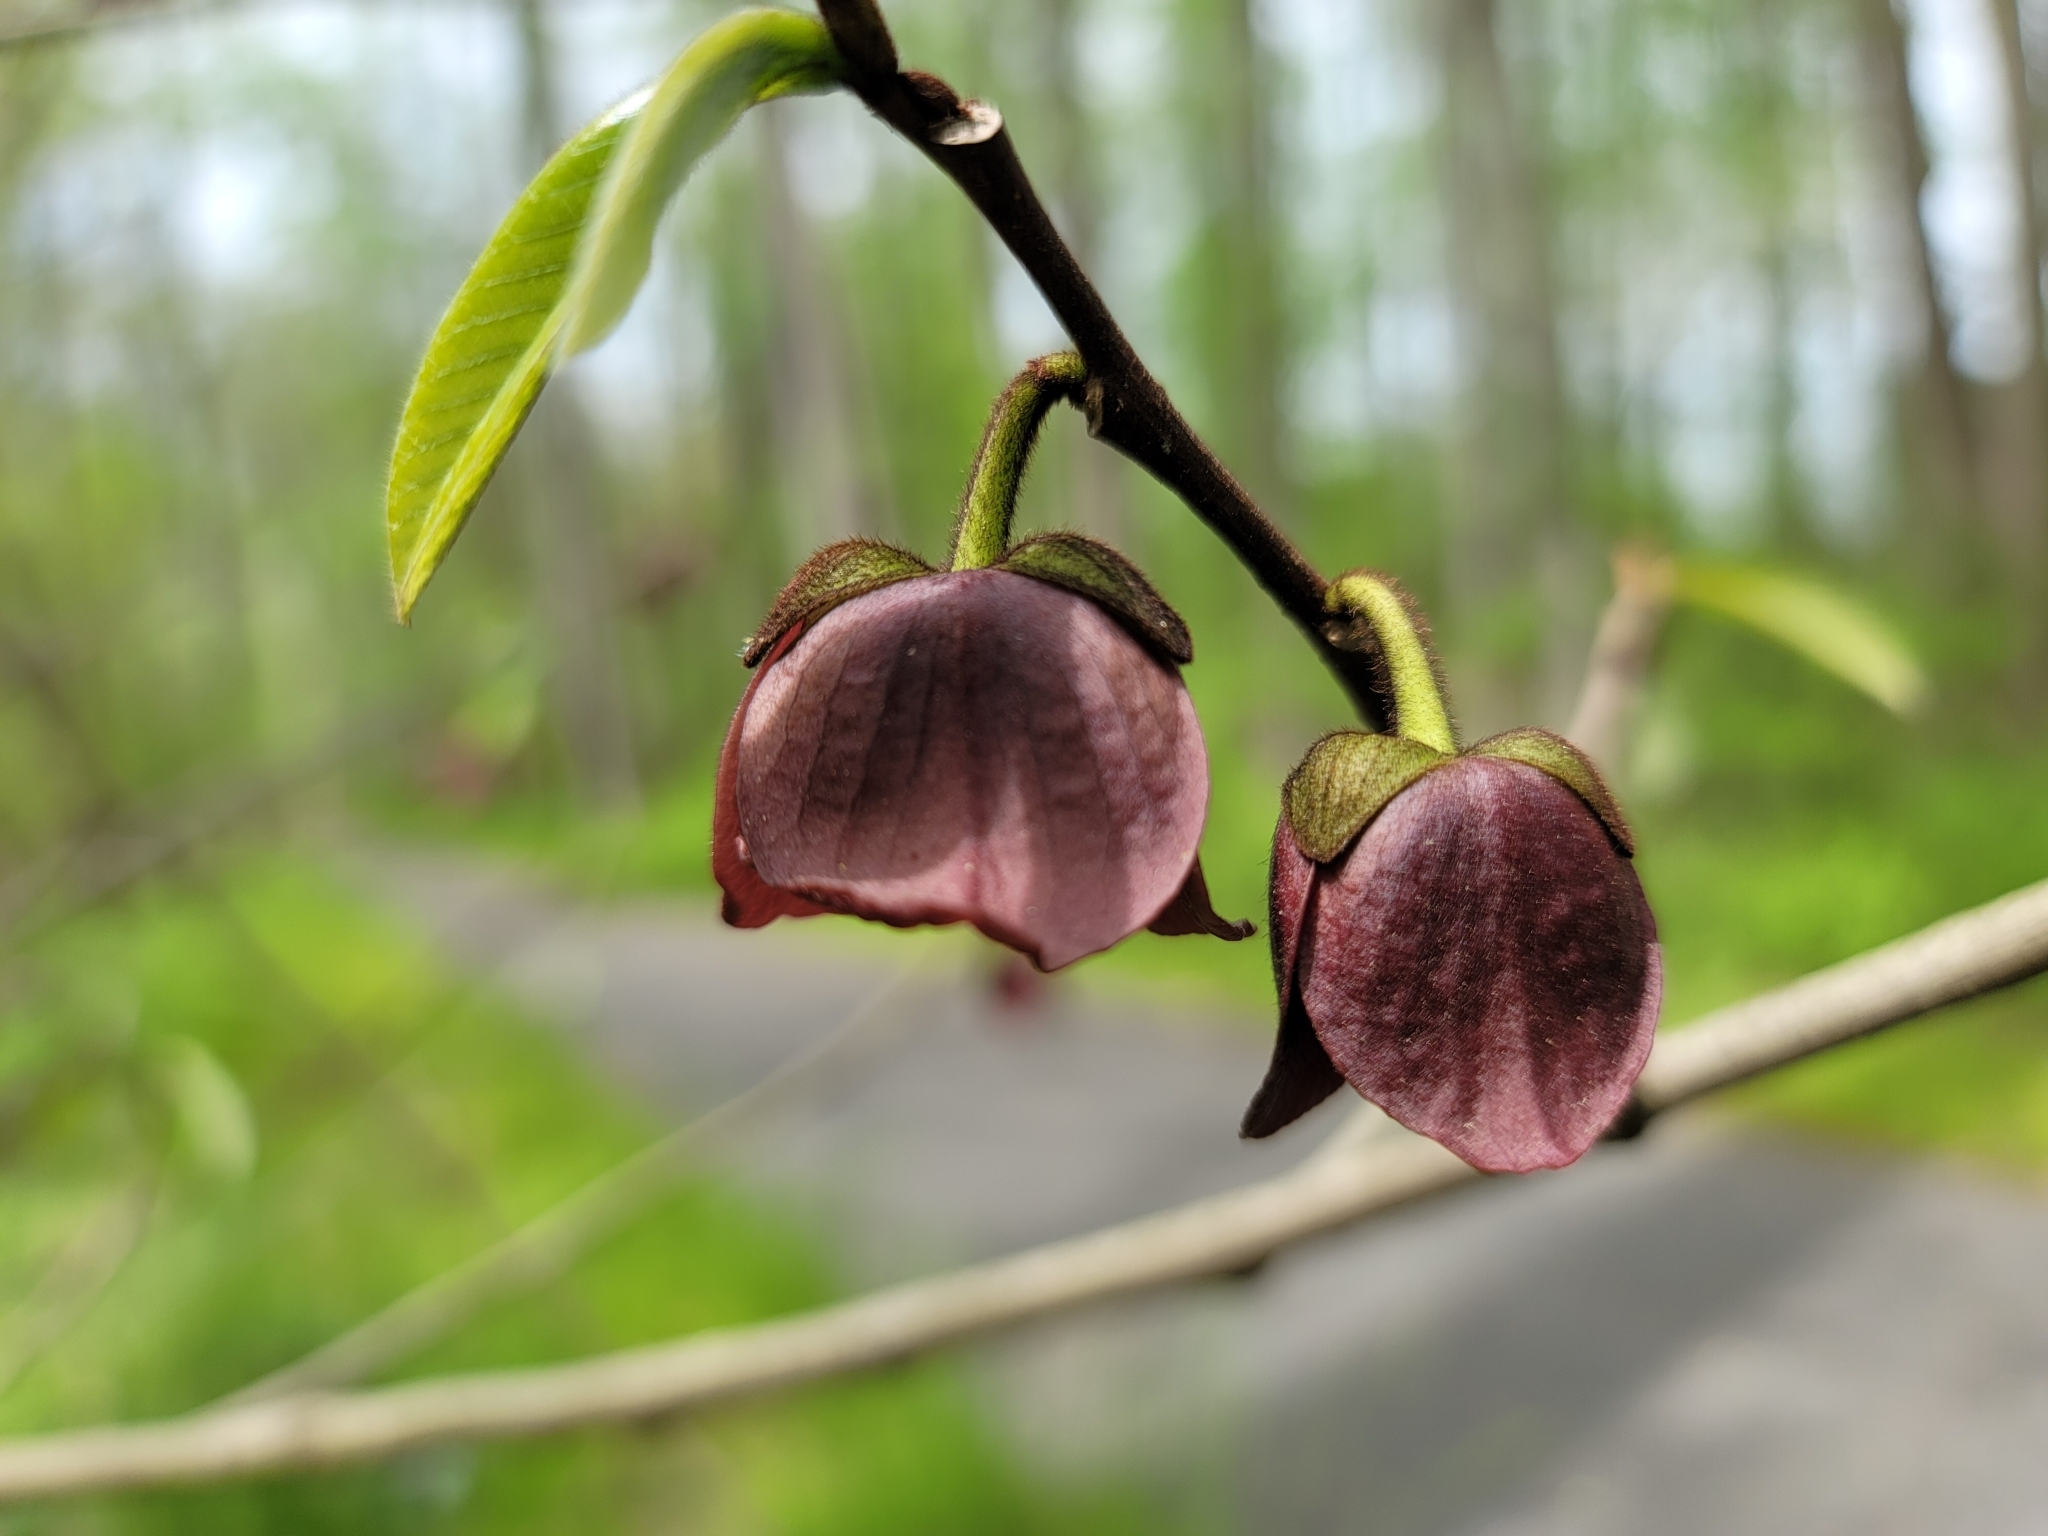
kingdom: Plantae
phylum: Tracheophyta
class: Magnoliopsida
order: Magnoliales
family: Annonaceae
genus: Asimina
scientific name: Asimina triloba
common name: Dog-banana
